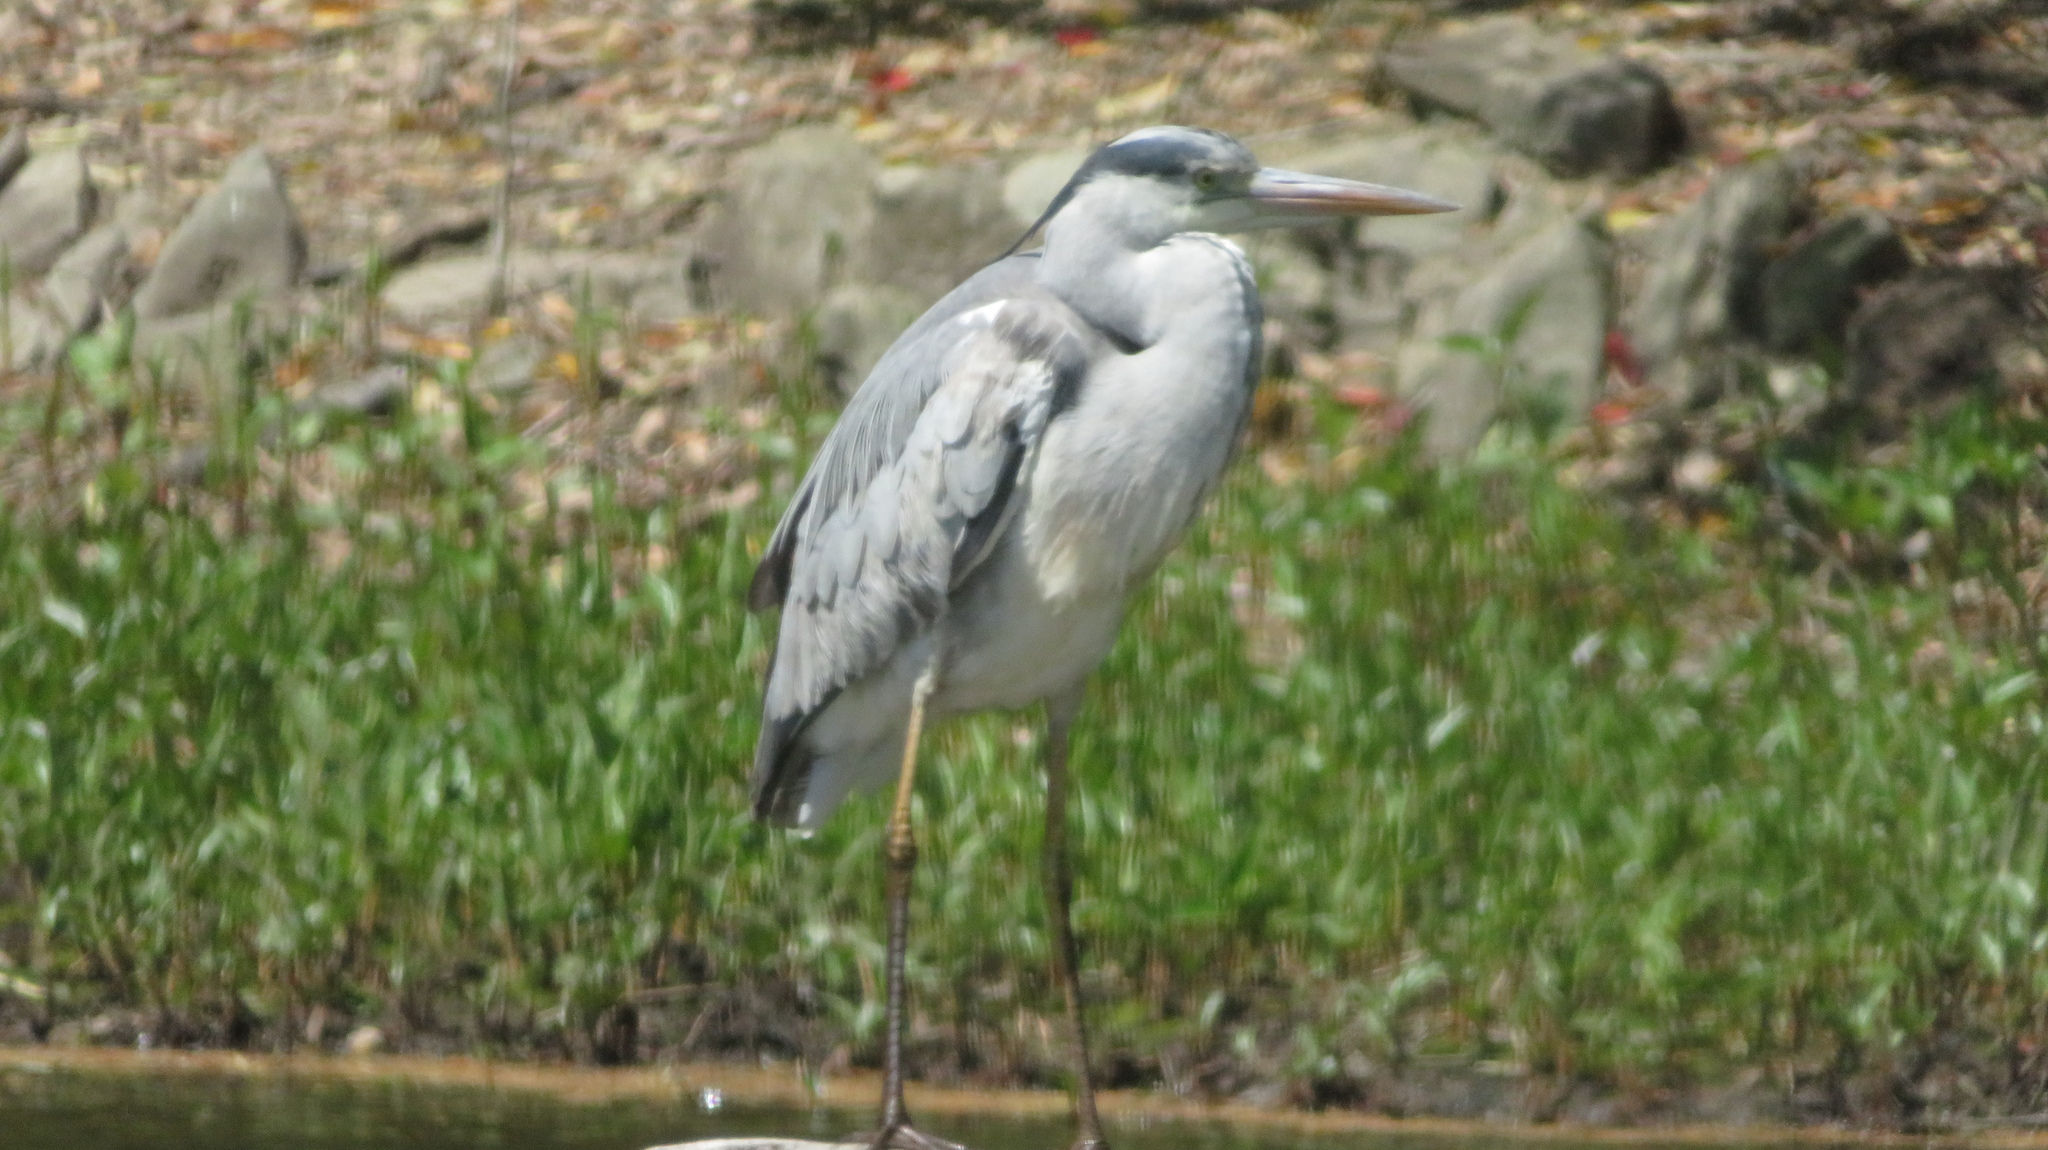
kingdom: Animalia
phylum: Chordata
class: Aves
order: Pelecaniformes
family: Ardeidae
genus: Ardea
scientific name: Ardea cinerea
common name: Grey heron
